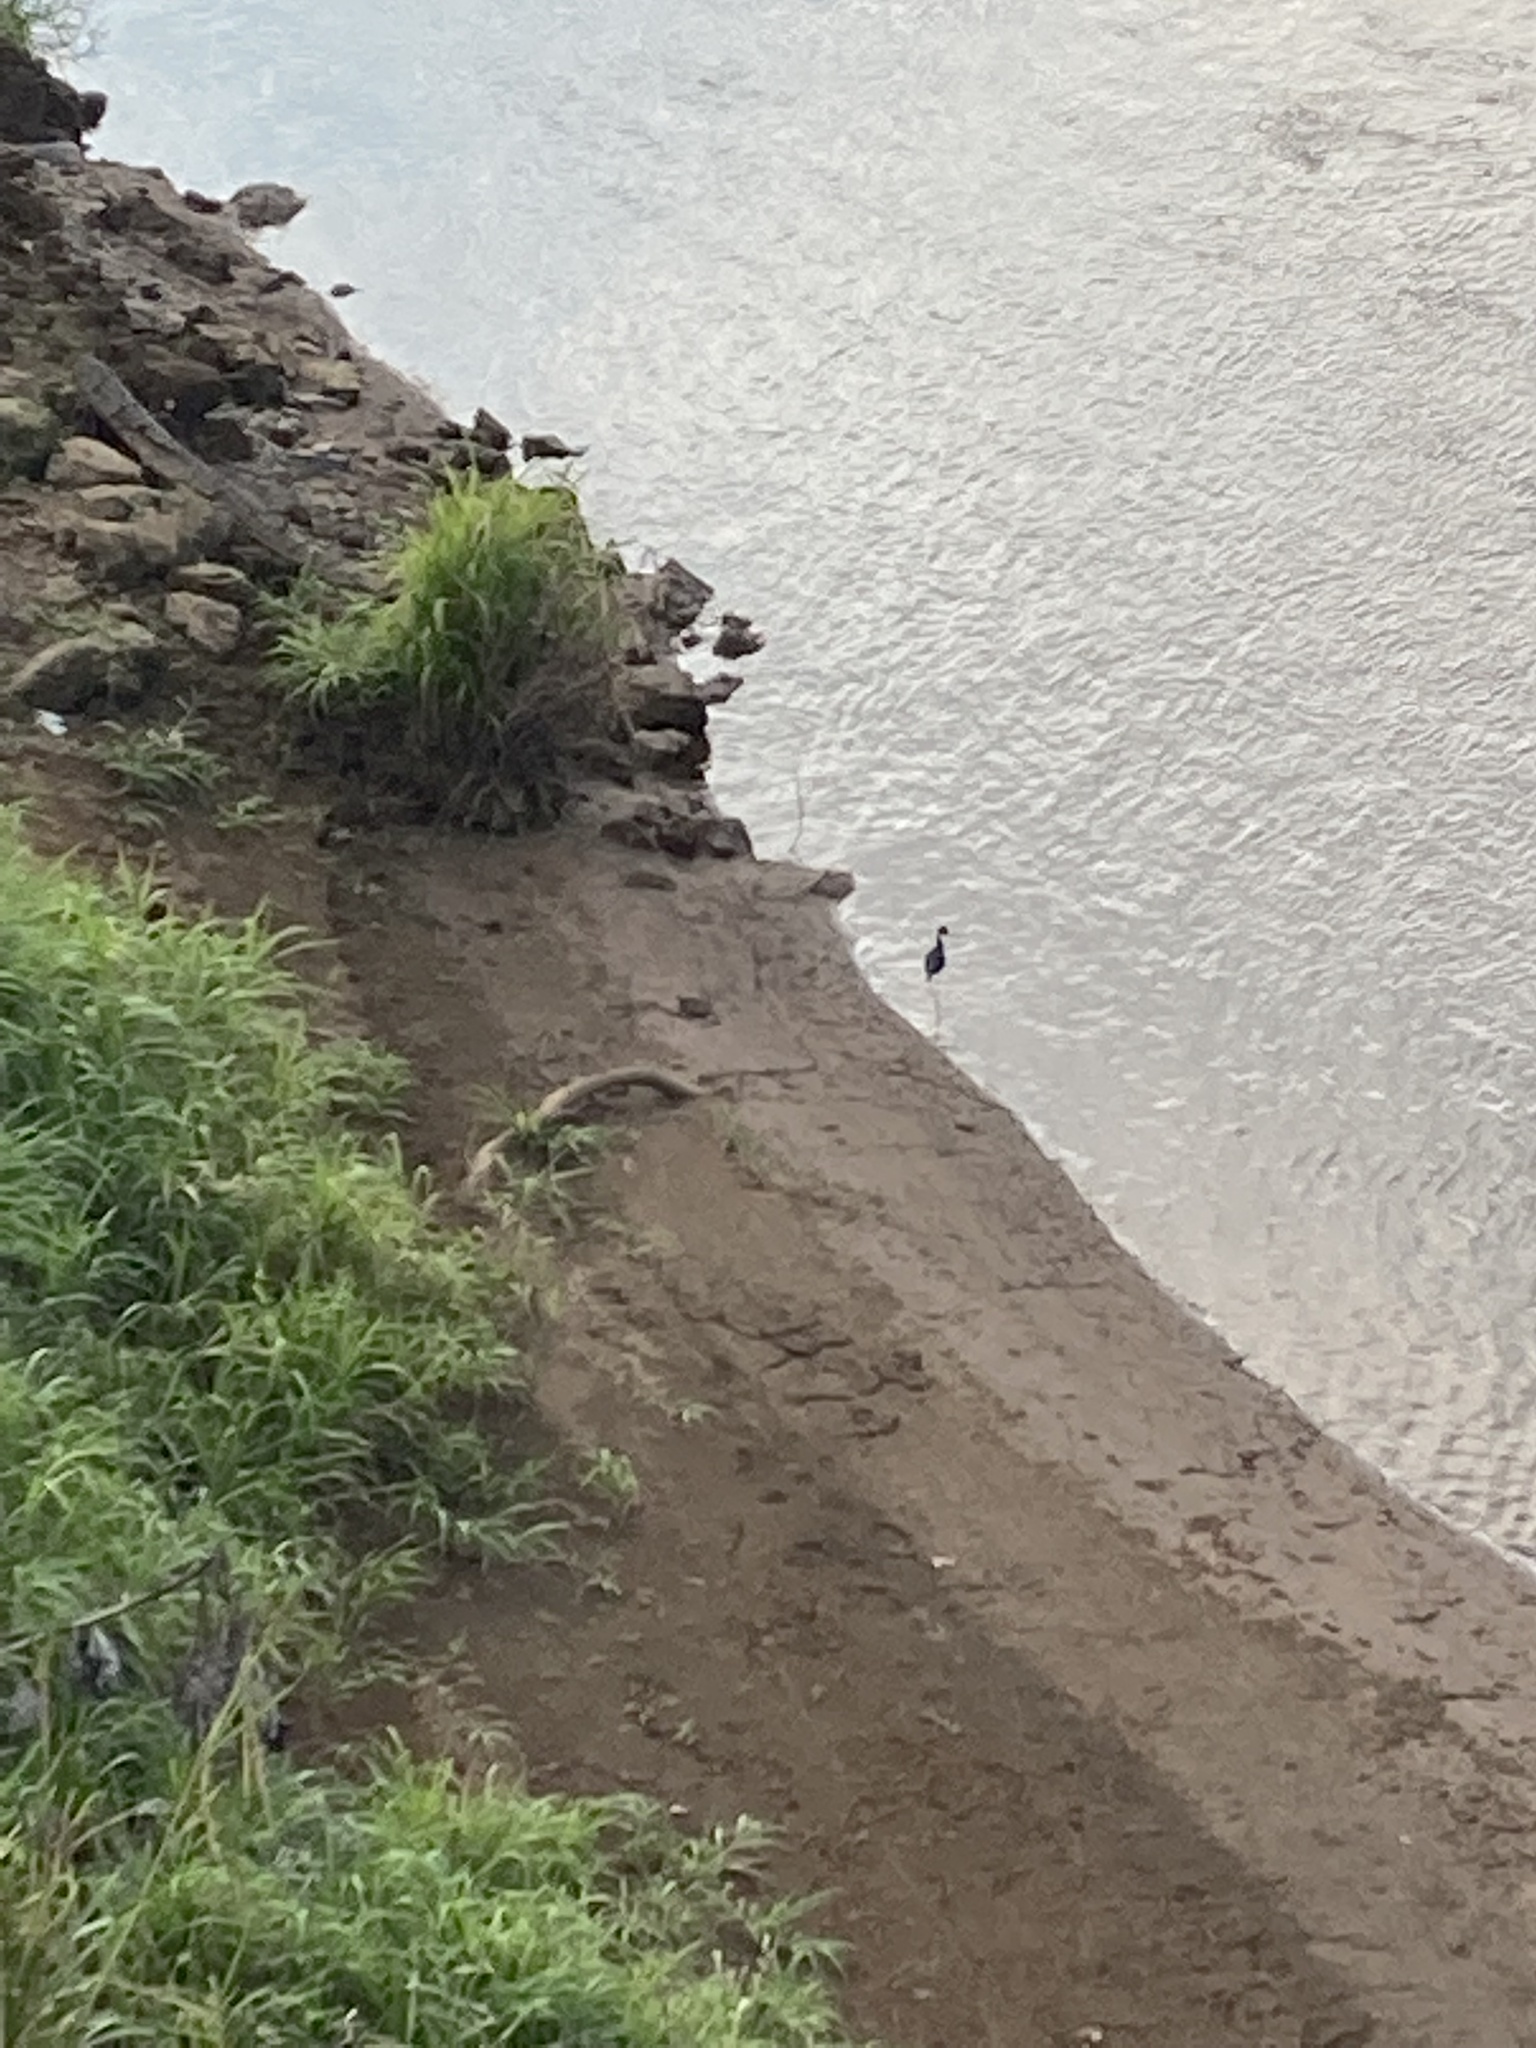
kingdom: Animalia
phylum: Chordata
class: Aves
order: Pelecaniformes
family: Ardeidae
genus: Egretta
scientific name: Egretta caerulea
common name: Little blue heron
